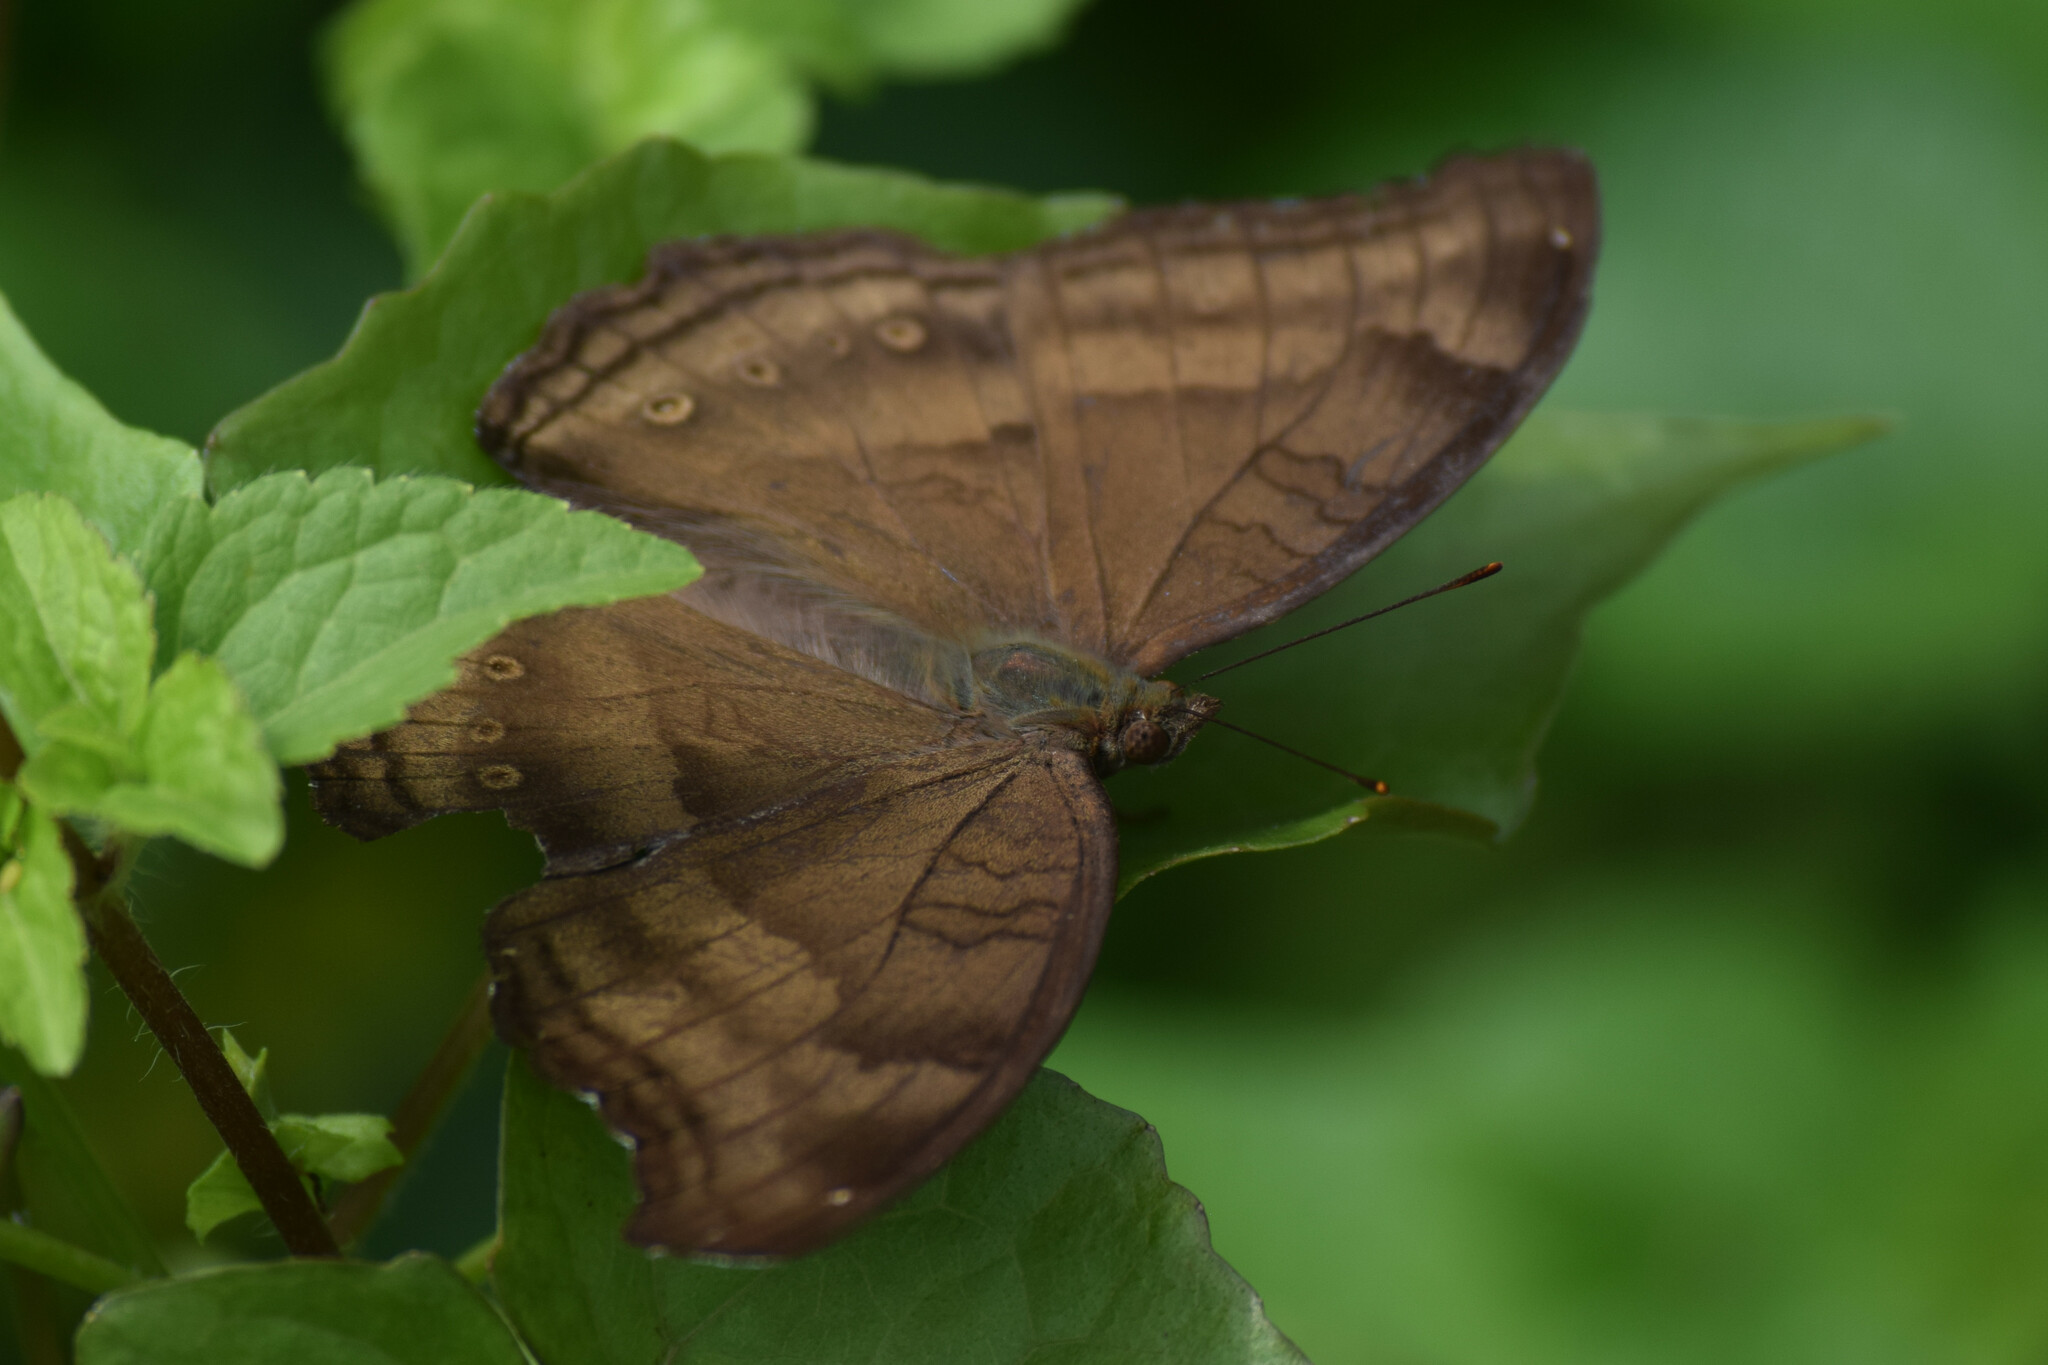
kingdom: Animalia
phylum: Arthropoda
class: Insecta
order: Lepidoptera
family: Nymphalidae
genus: Junonia
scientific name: Junonia iphita
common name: Chocolate pansy
